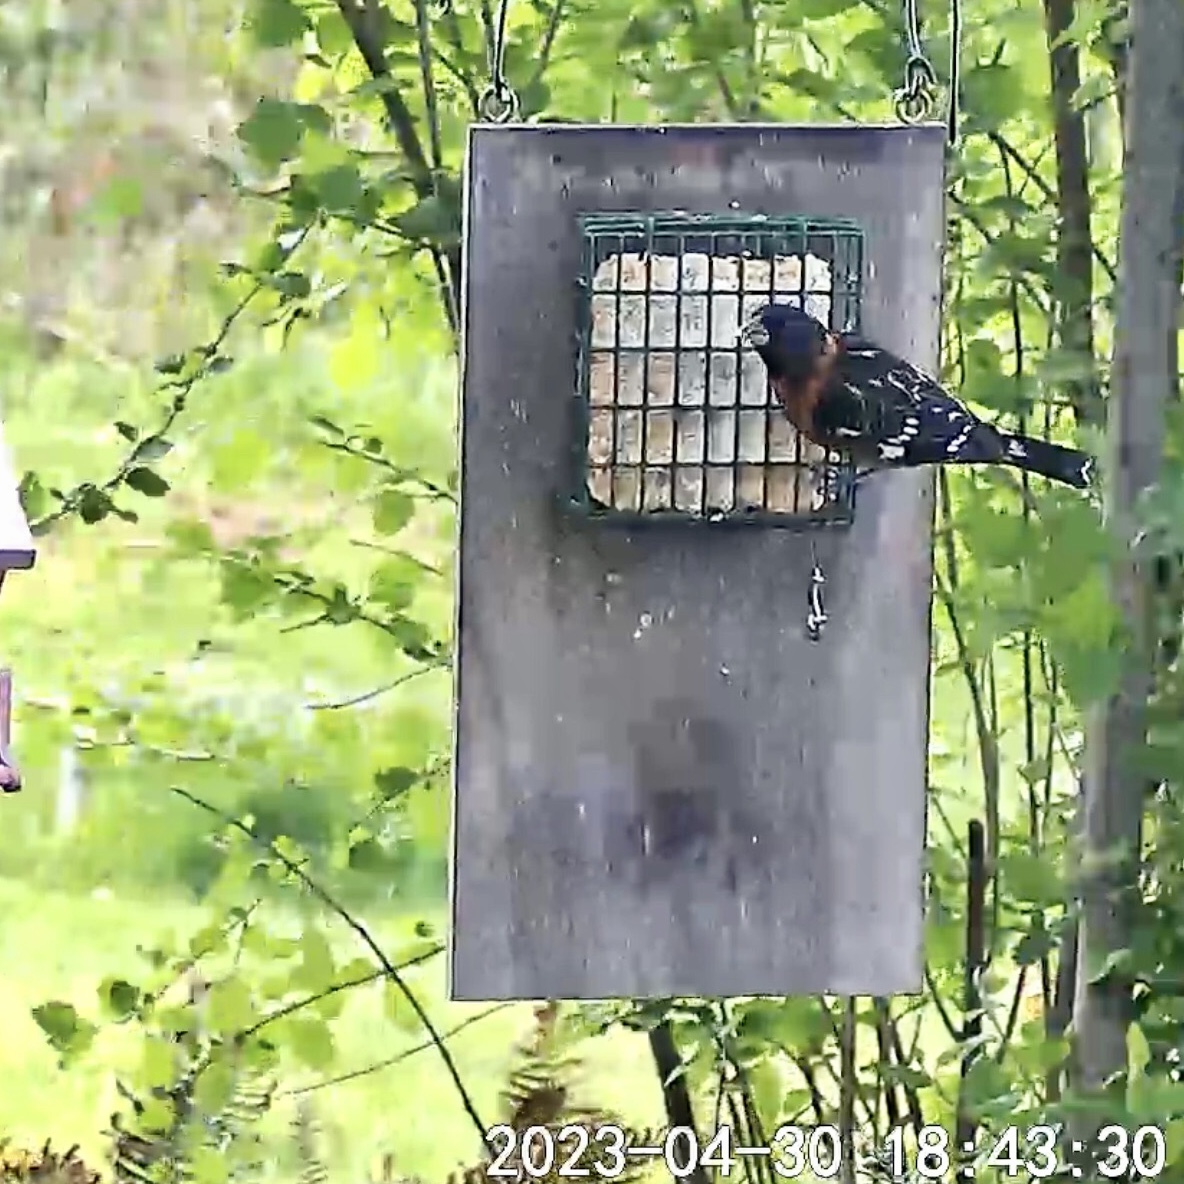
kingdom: Animalia
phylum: Chordata
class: Aves
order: Passeriformes
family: Cardinalidae
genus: Pheucticus
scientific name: Pheucticus melanocephalus
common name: Black-headed grosbeak
